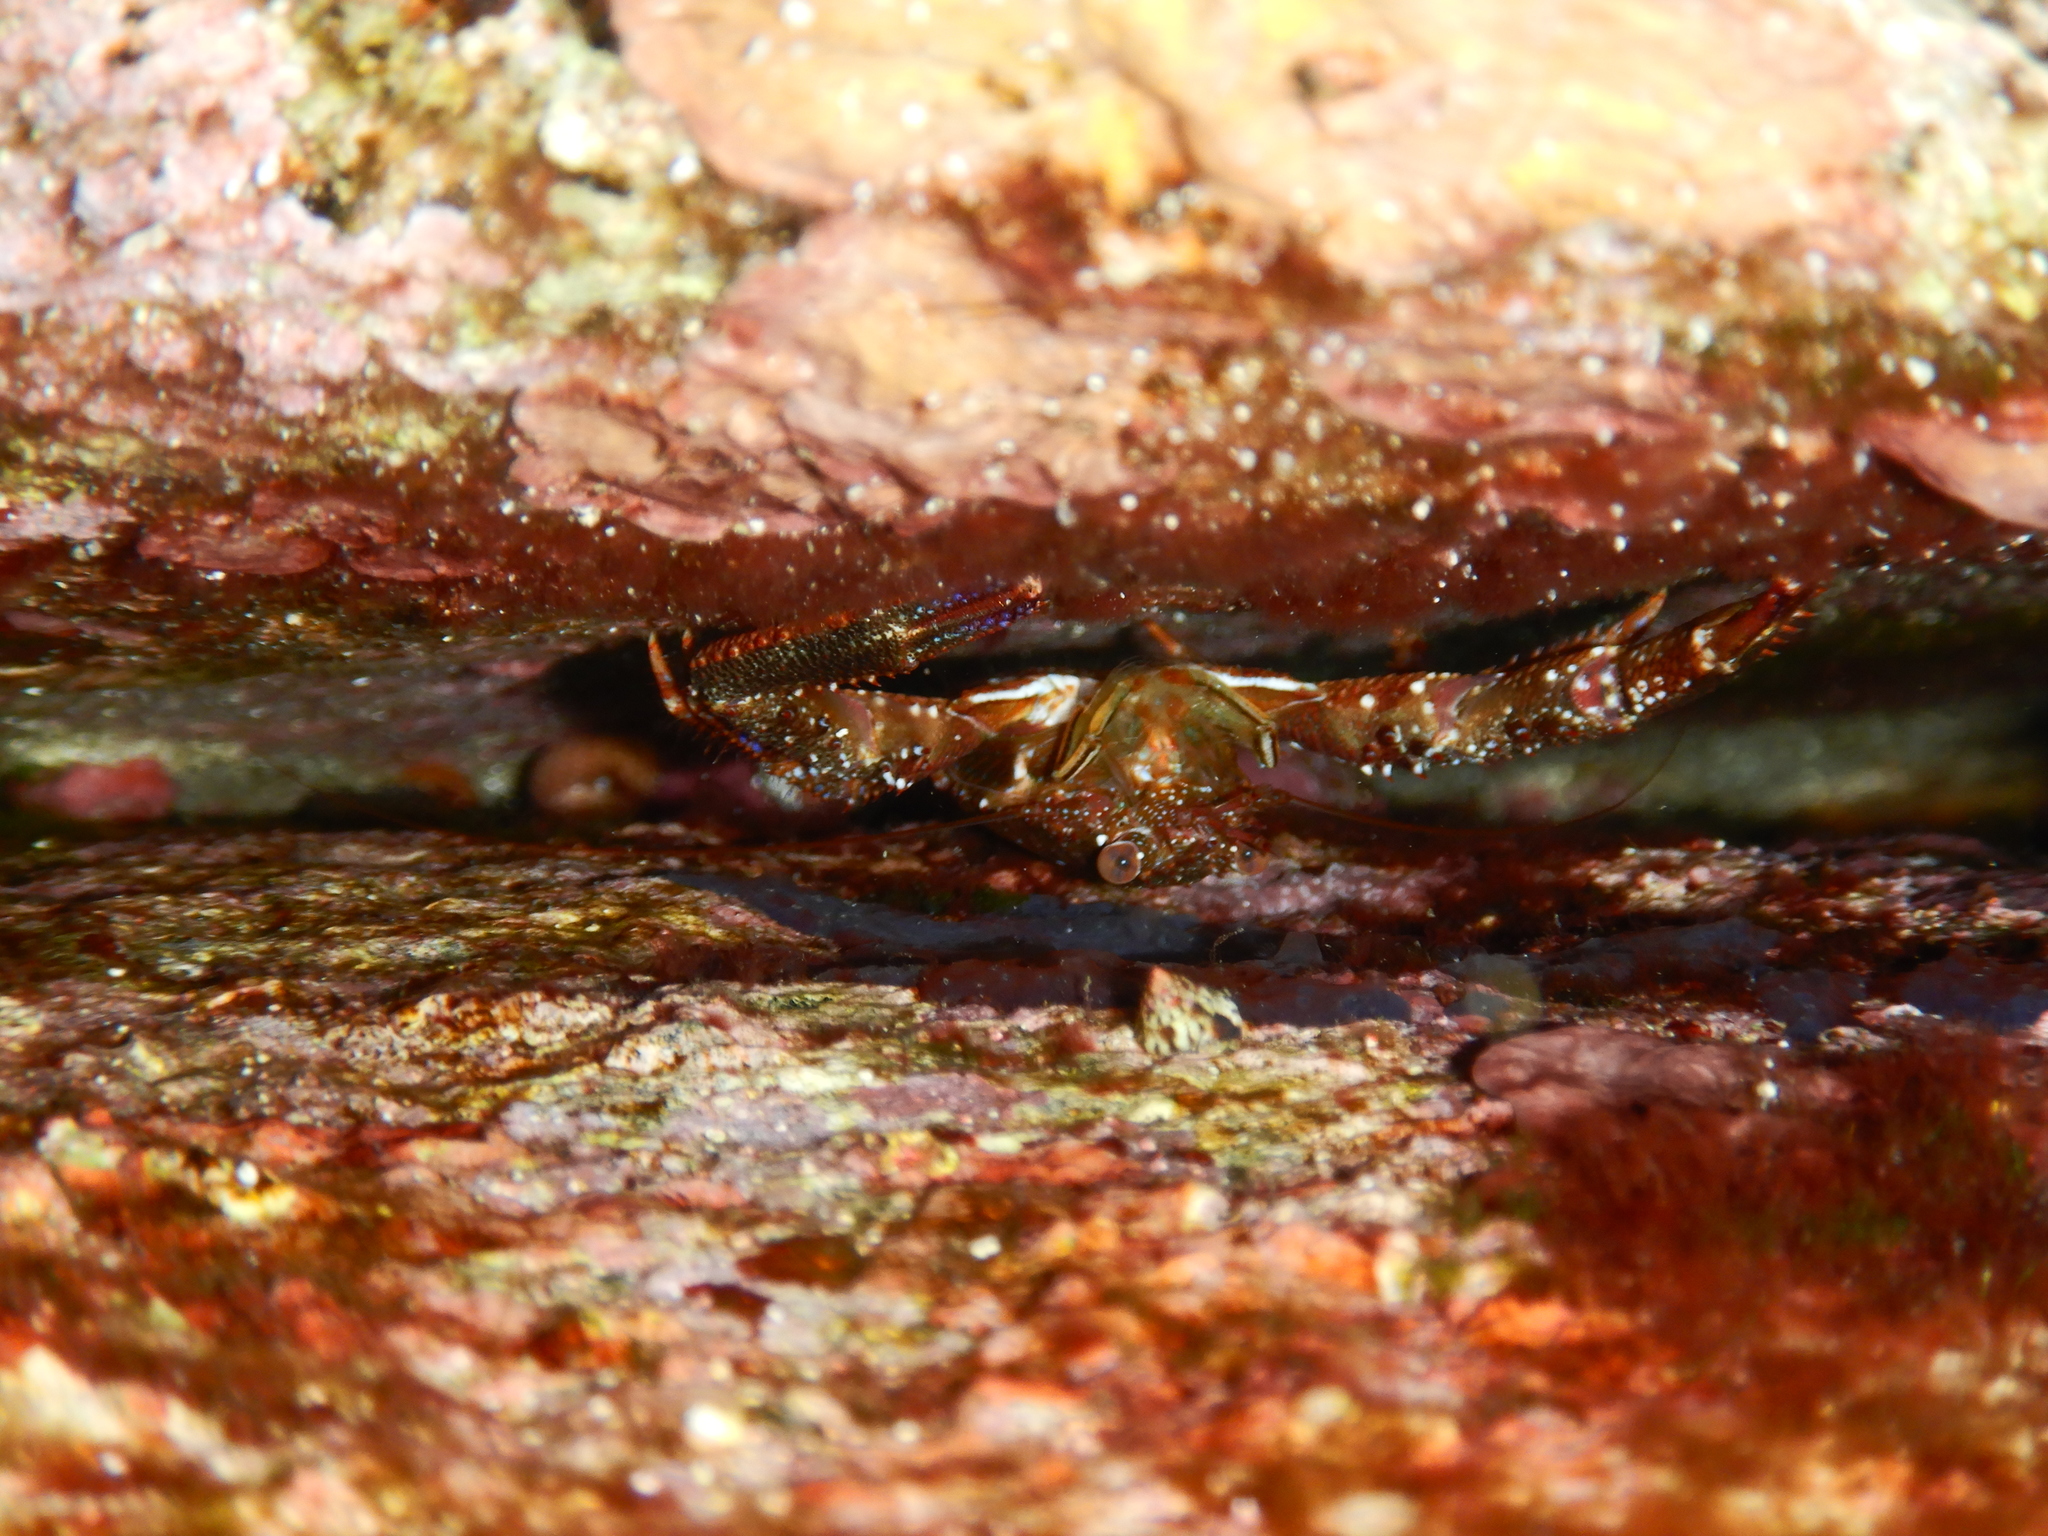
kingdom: Animalia
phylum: Arthropoda
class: Malacostraca
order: Decapoda
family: Galatheidae
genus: Galathea
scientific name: Galathea squamifera
